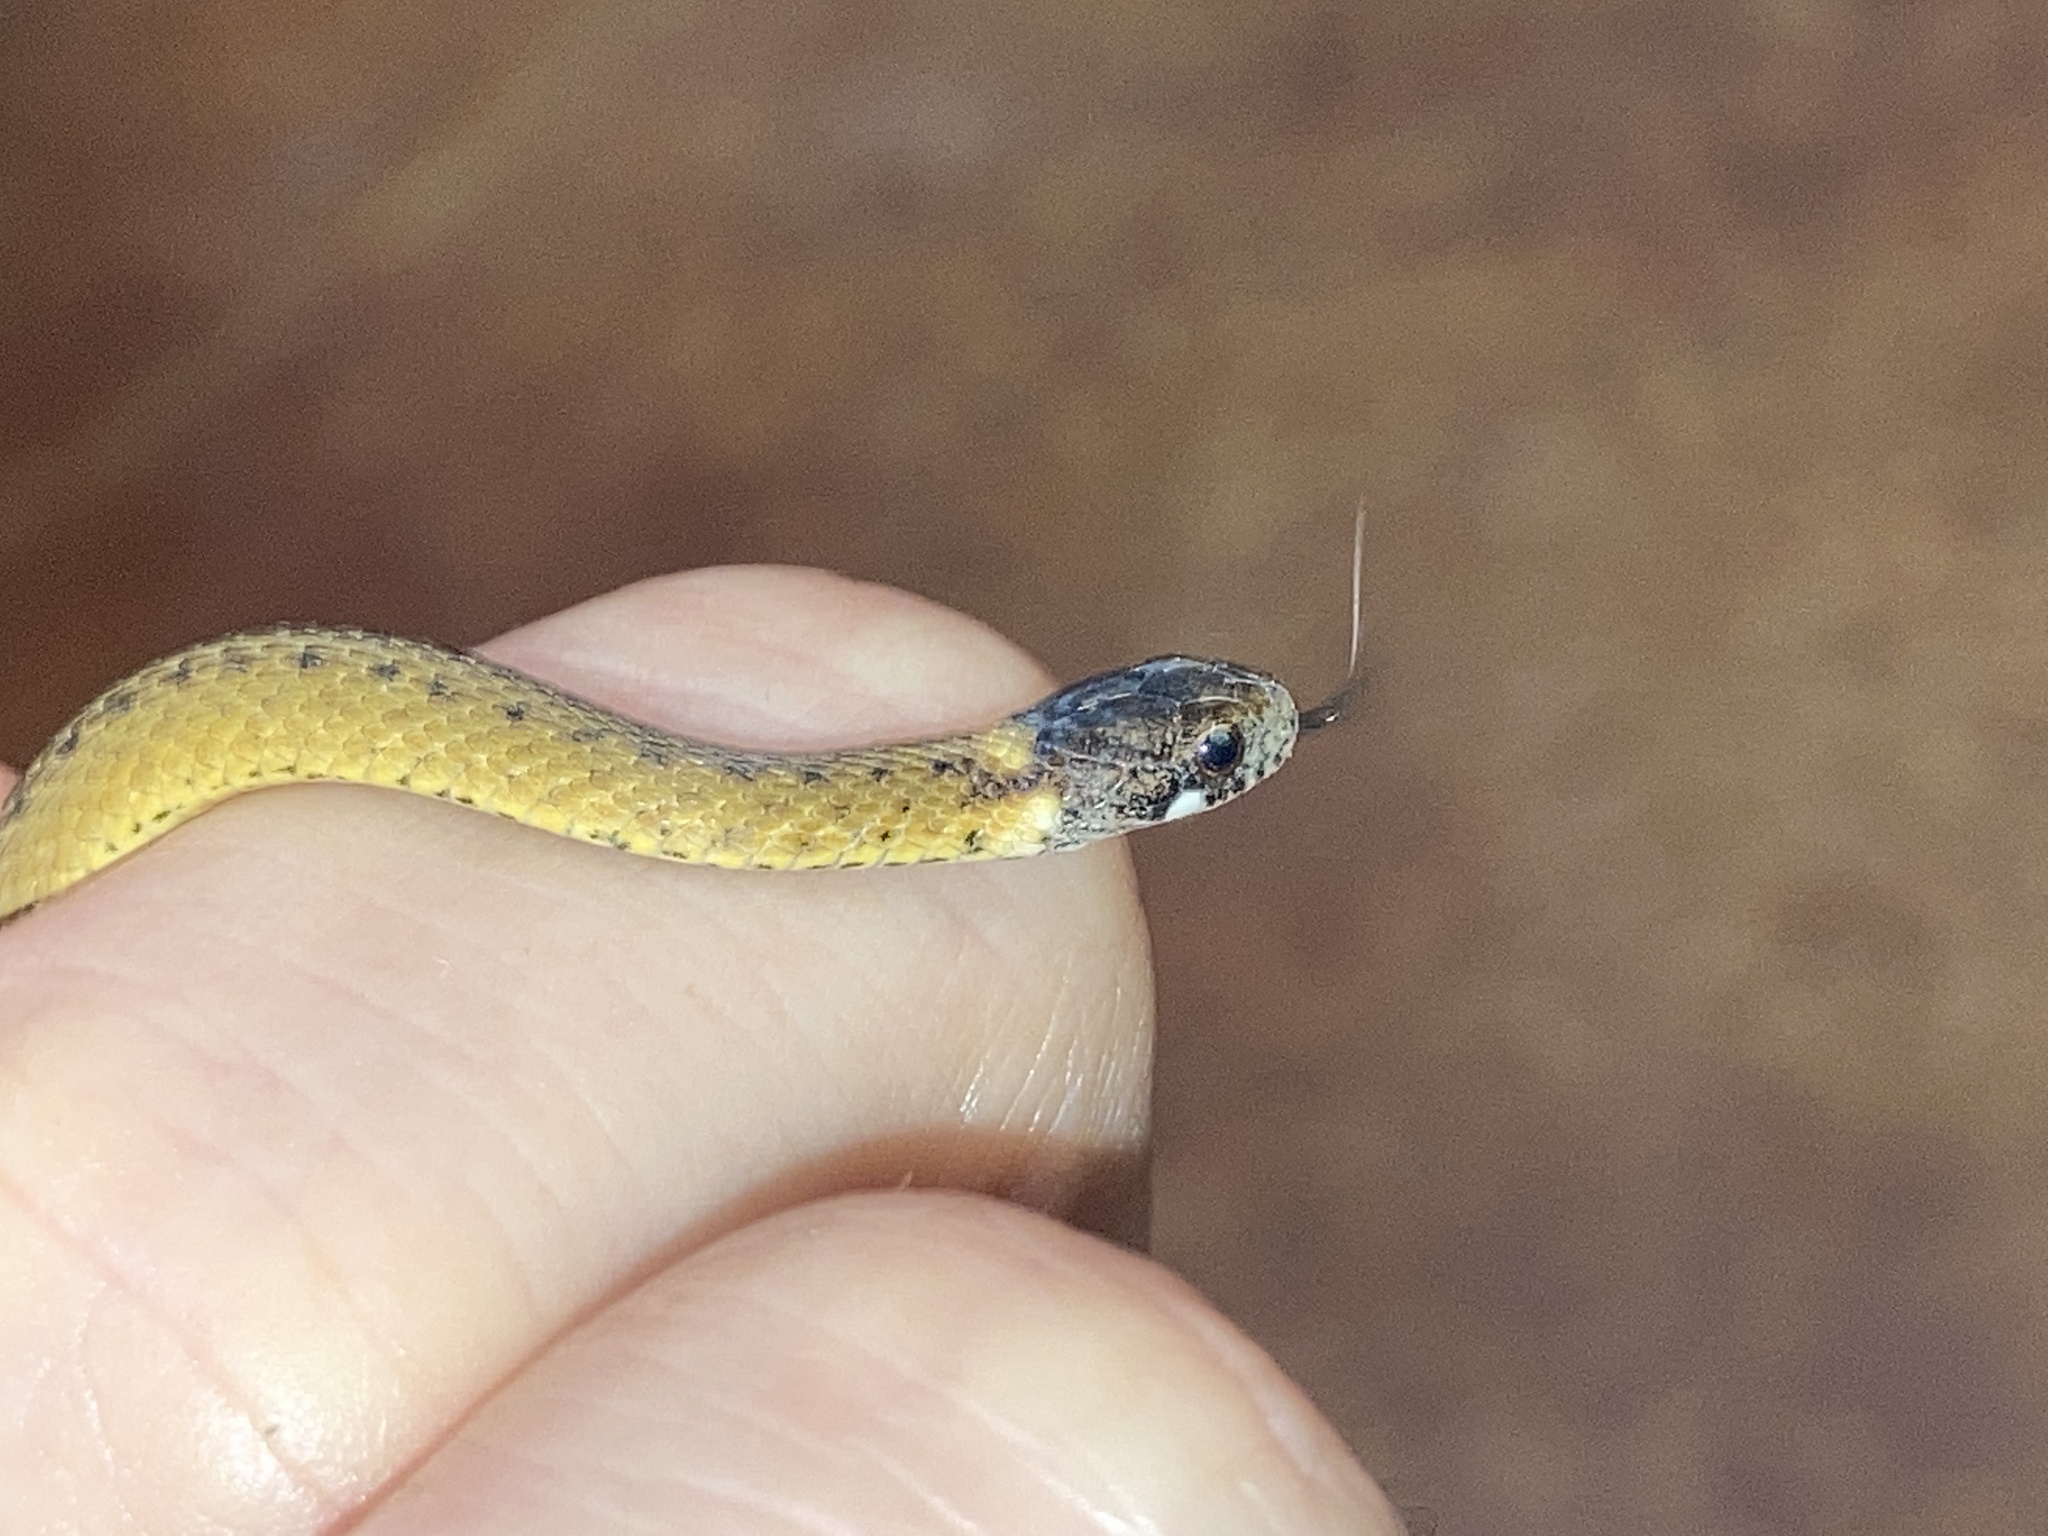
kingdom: Animalia
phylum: Chordata
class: Squamata
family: Colubridae
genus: Storeria
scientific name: Storeria occipitomaculata
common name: Redbelly snake
